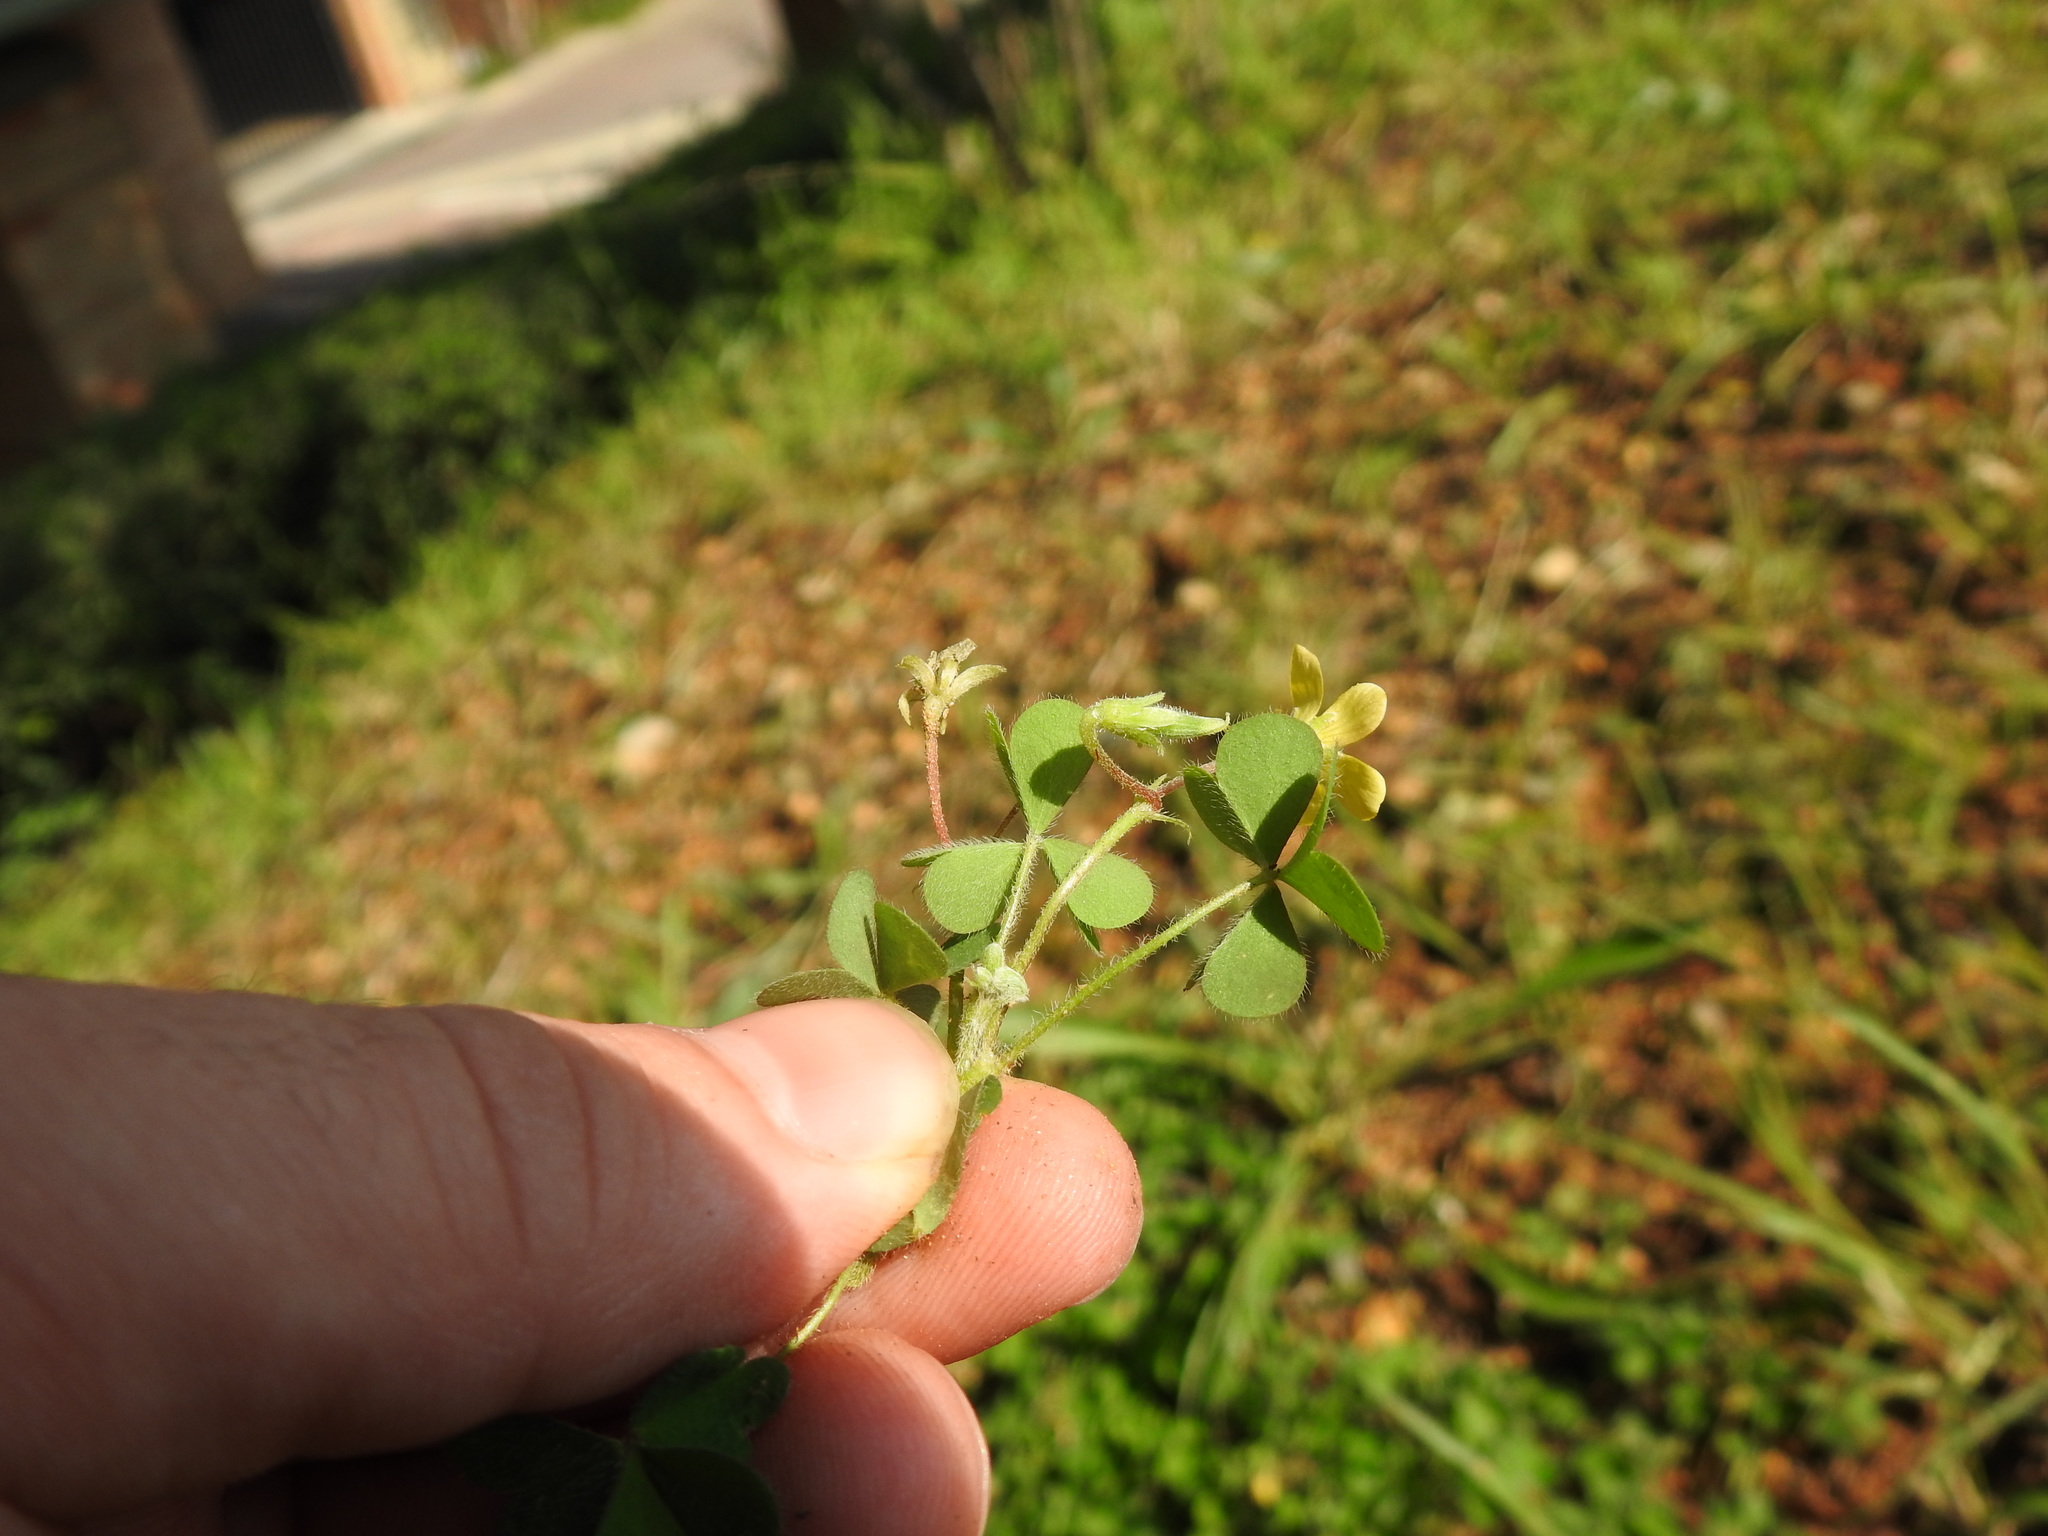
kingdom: Plantae
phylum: Tracheophyta
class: Magnoliopsida
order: Oxalidales
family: Oxalidaceae
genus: Oxalis
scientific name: Oxalis corniculata
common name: Procumbent yellow-sorrel
